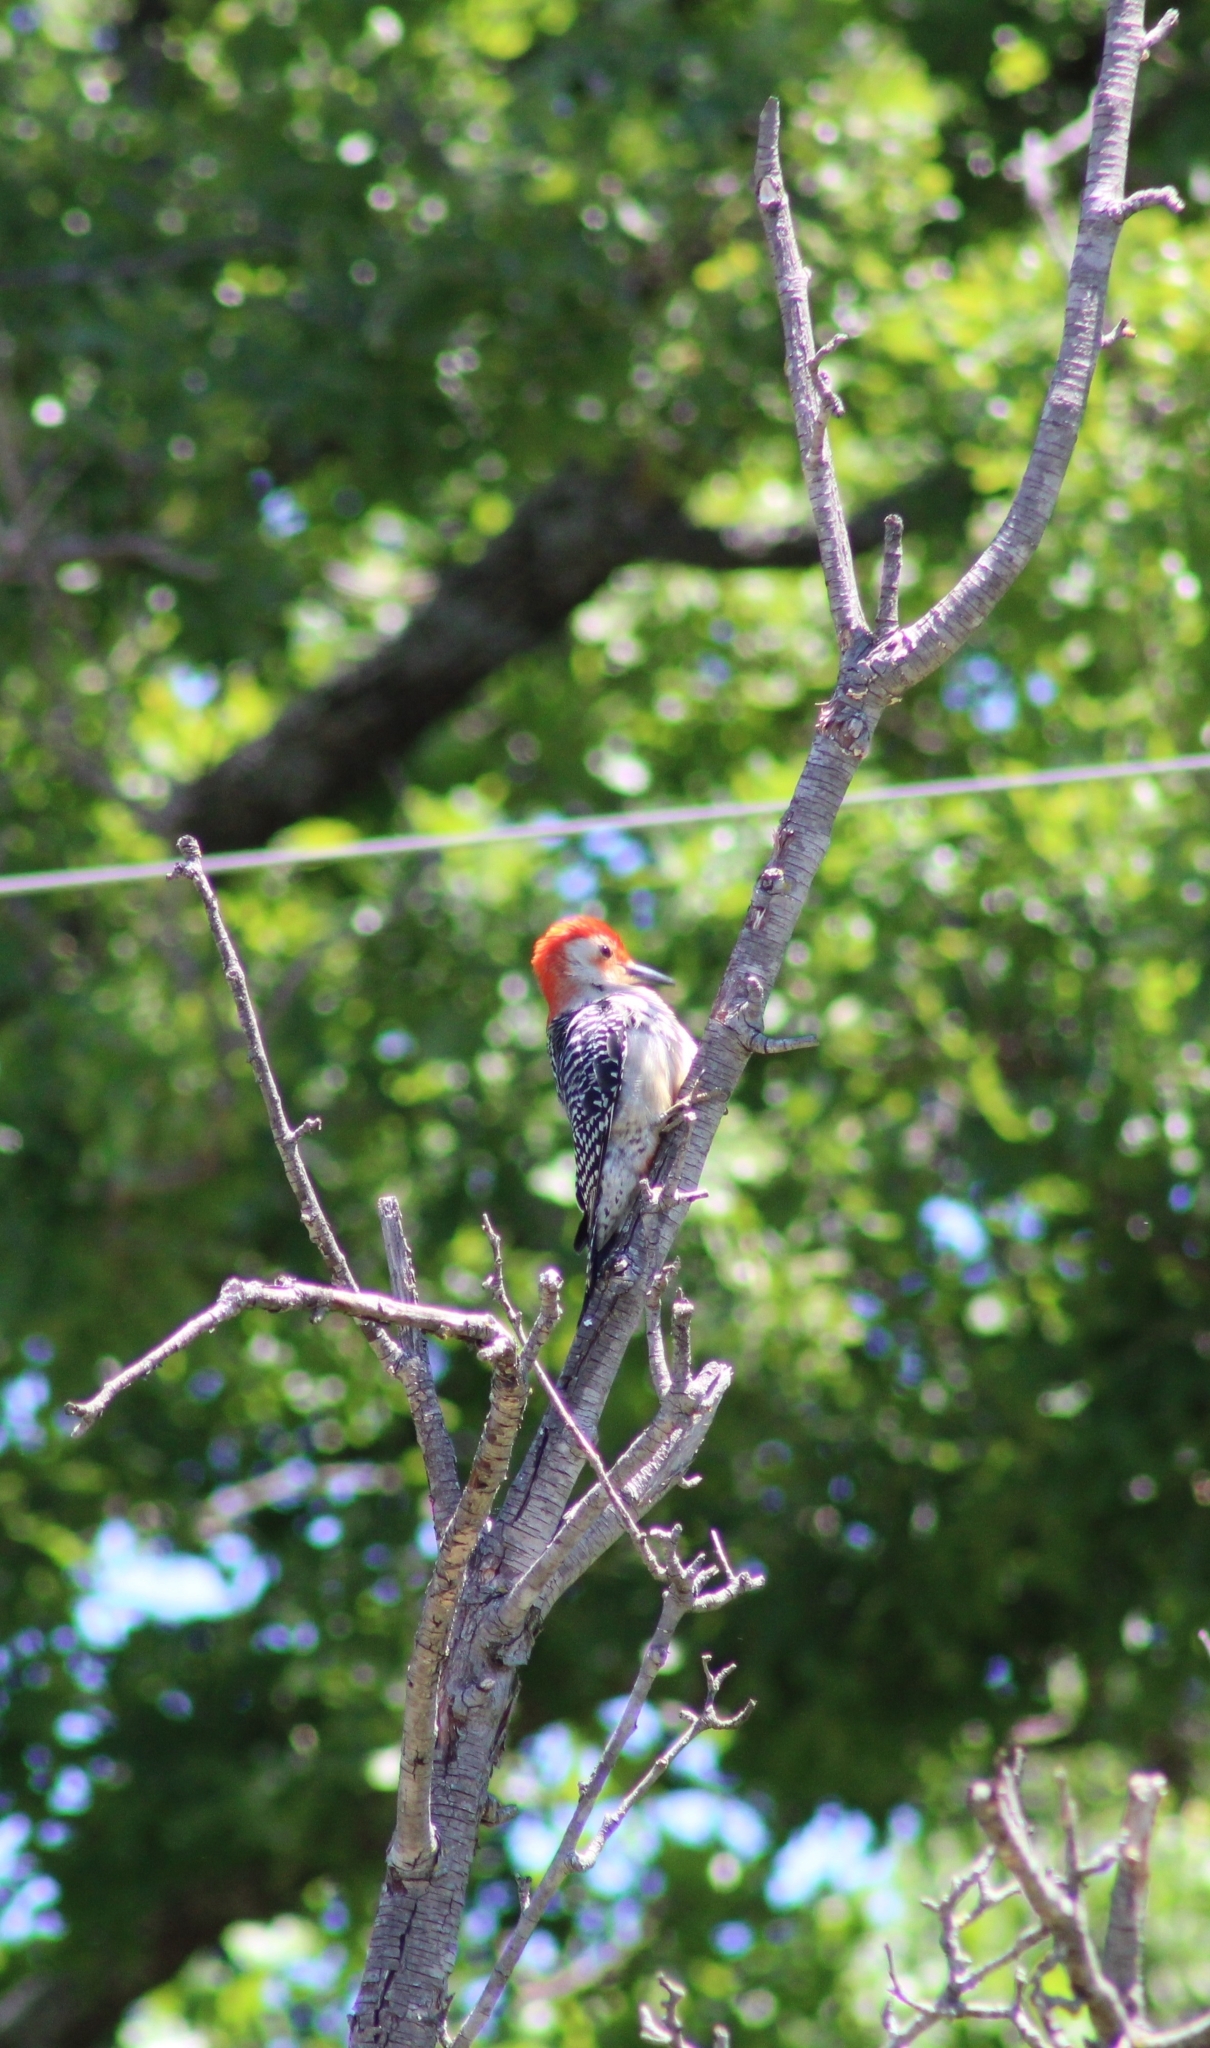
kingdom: Animalia
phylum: Chordata
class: Aves
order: Piciformes
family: Picidae
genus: Melanerpes
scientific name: Melanerpes carolinus
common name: Red-bellied woodpecker
